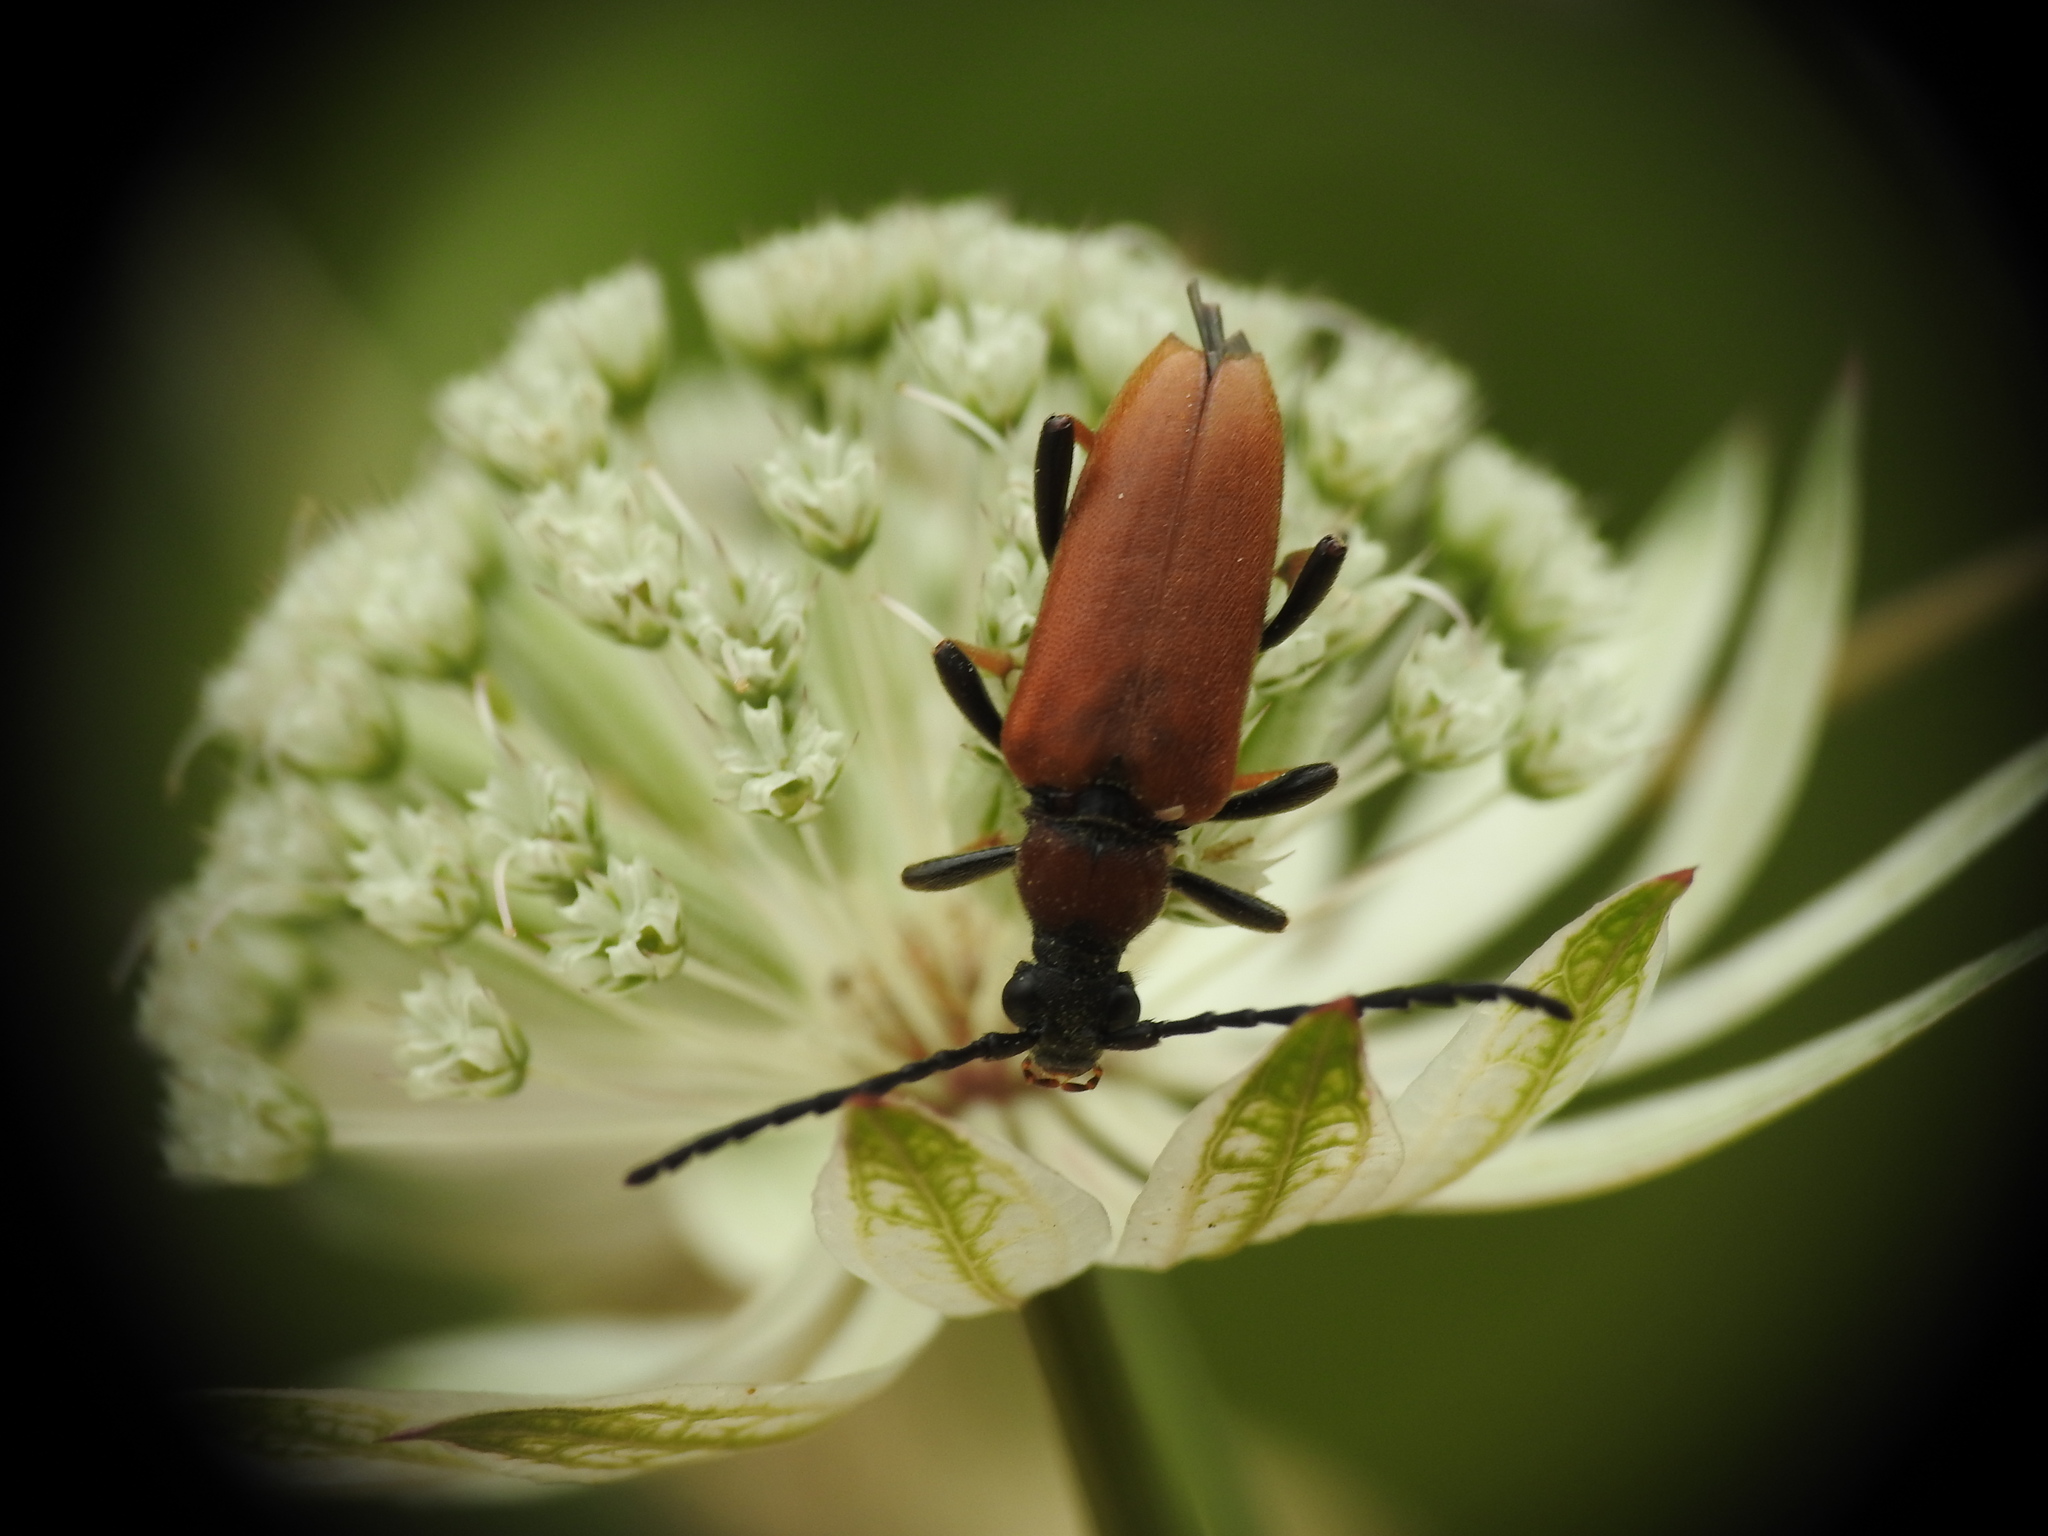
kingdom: Animalia
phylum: Arthropoda
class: Insecta
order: Coleoptera
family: Cerambycidae
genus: Stictoleptura
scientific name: Stictoleptura rubra
